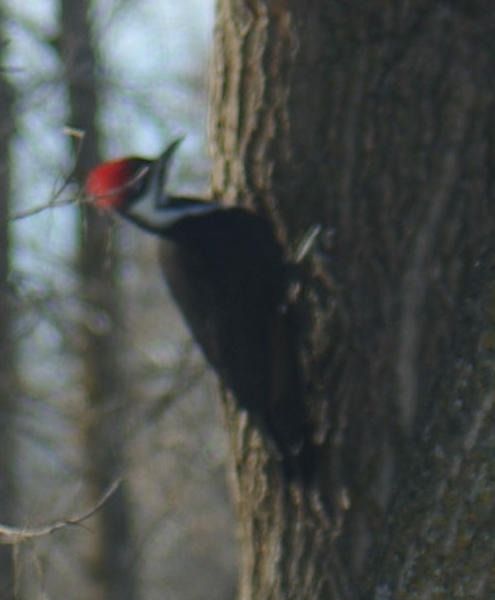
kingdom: Animalia
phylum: Chordata
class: Aves
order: Piciformes
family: Picidae
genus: Dryocopus
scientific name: Dryocopus pileatus
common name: Pileated woodpecker
